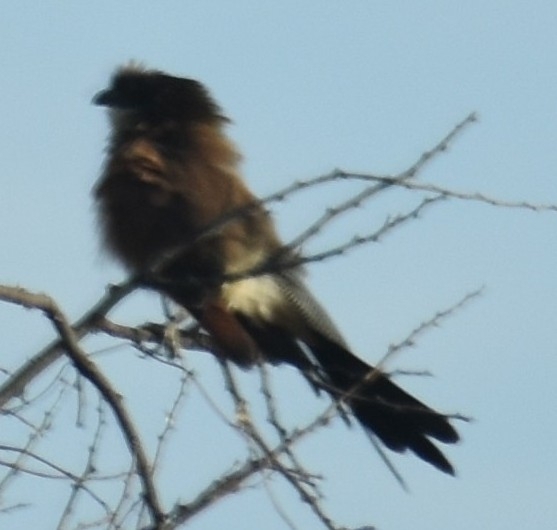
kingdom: Animalia
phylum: Chordata
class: Aves
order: Cuculiformes
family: Cuculidae
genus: Centropus
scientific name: Centropus superciliosus
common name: White-browed coucal
